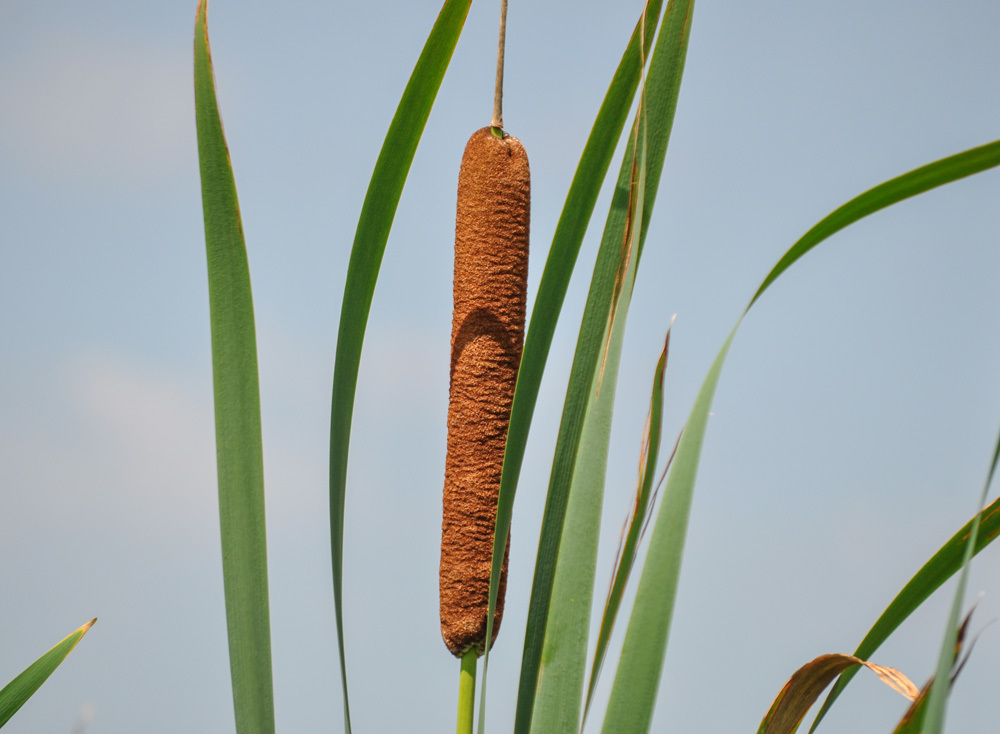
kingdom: Plantae
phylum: Tracheophyta
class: Liliopsida
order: Poales
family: Typhaceae
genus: Typha
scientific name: Typha latifolia
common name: Broadleaf cattail
